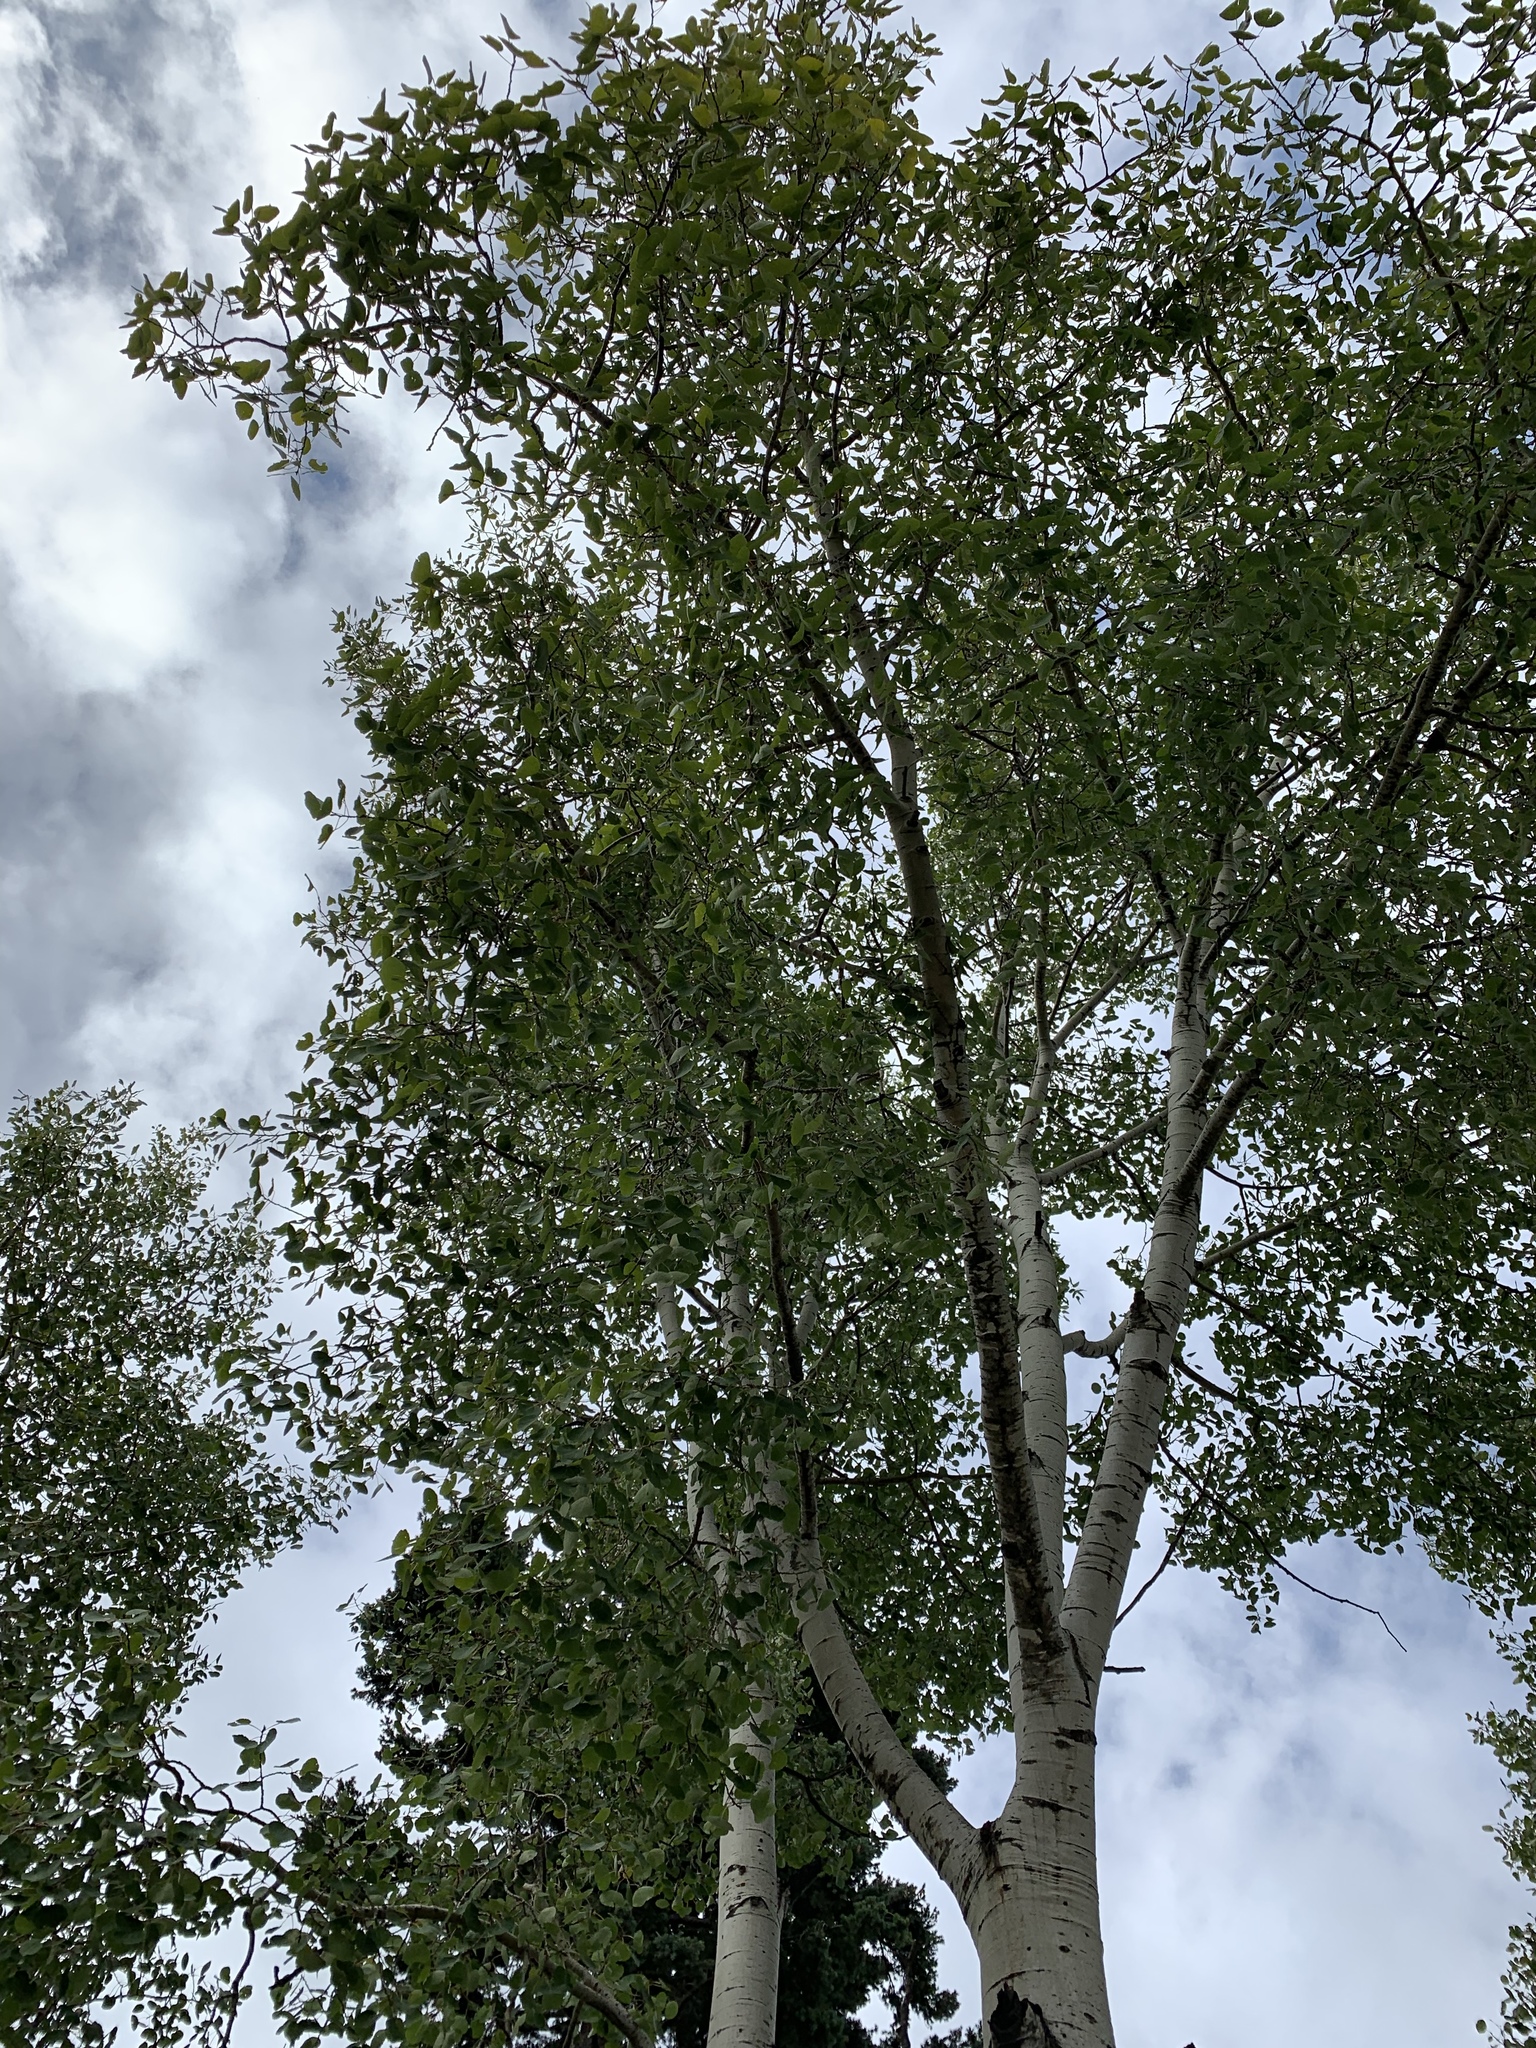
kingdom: Plantae
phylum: Tracheophyta
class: Magnoliopsida
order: Malpighiales
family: Salicaceae
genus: Populus
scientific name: Populus tremuloides
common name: Quaking aspen
